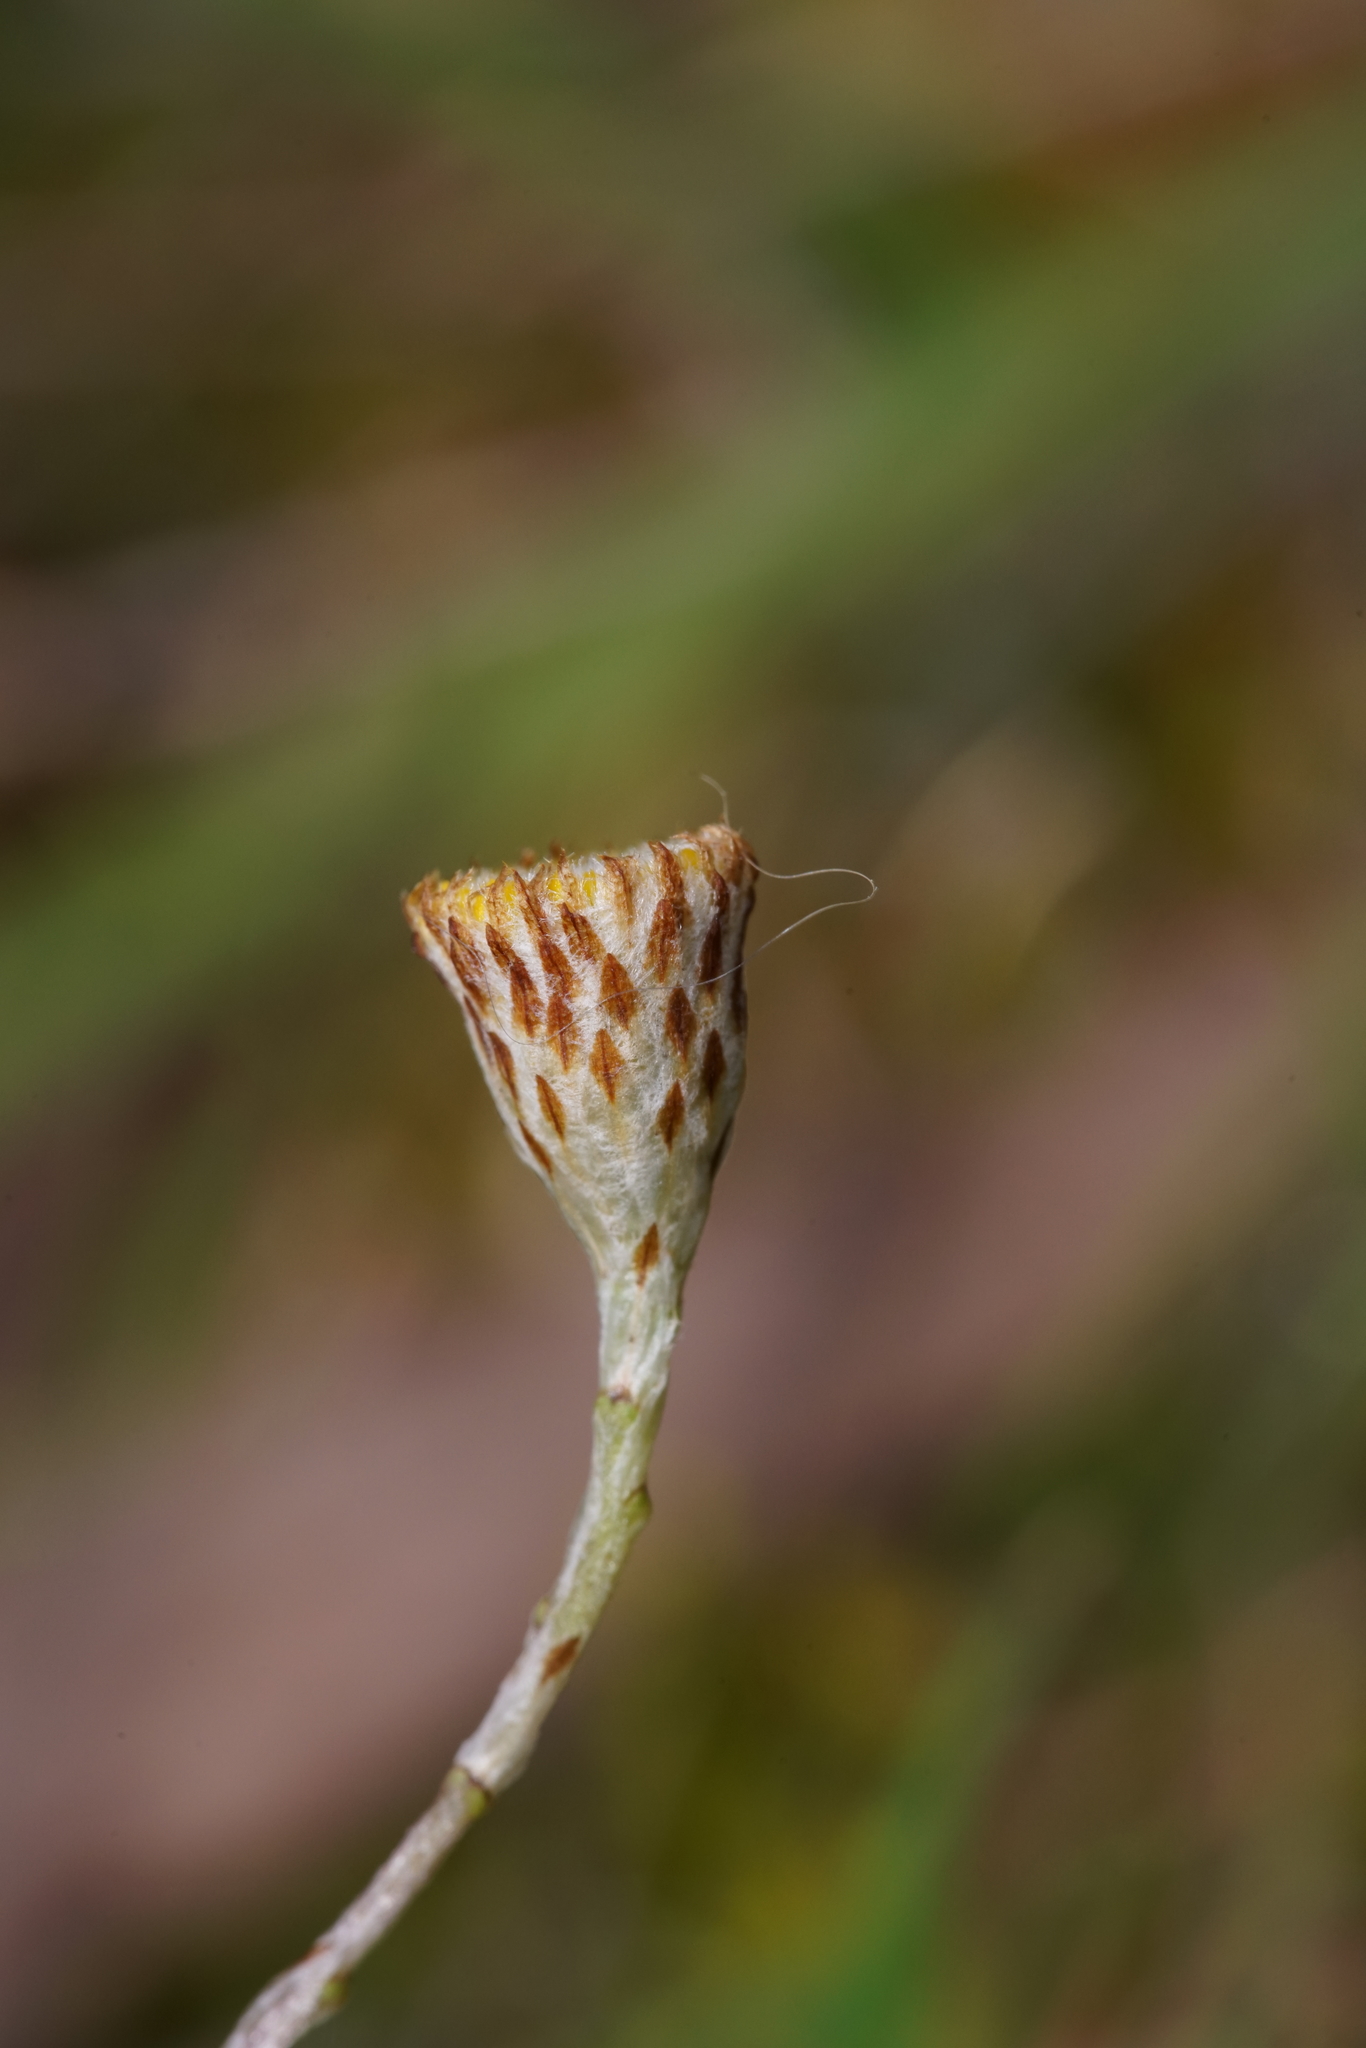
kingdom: Plantae
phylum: Tracheophyta
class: Magnoliopsida
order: Asterales
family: Asteraceae
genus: Leptorhynchos
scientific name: Leptorhynchos squamatus
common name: Scaly-buttons
